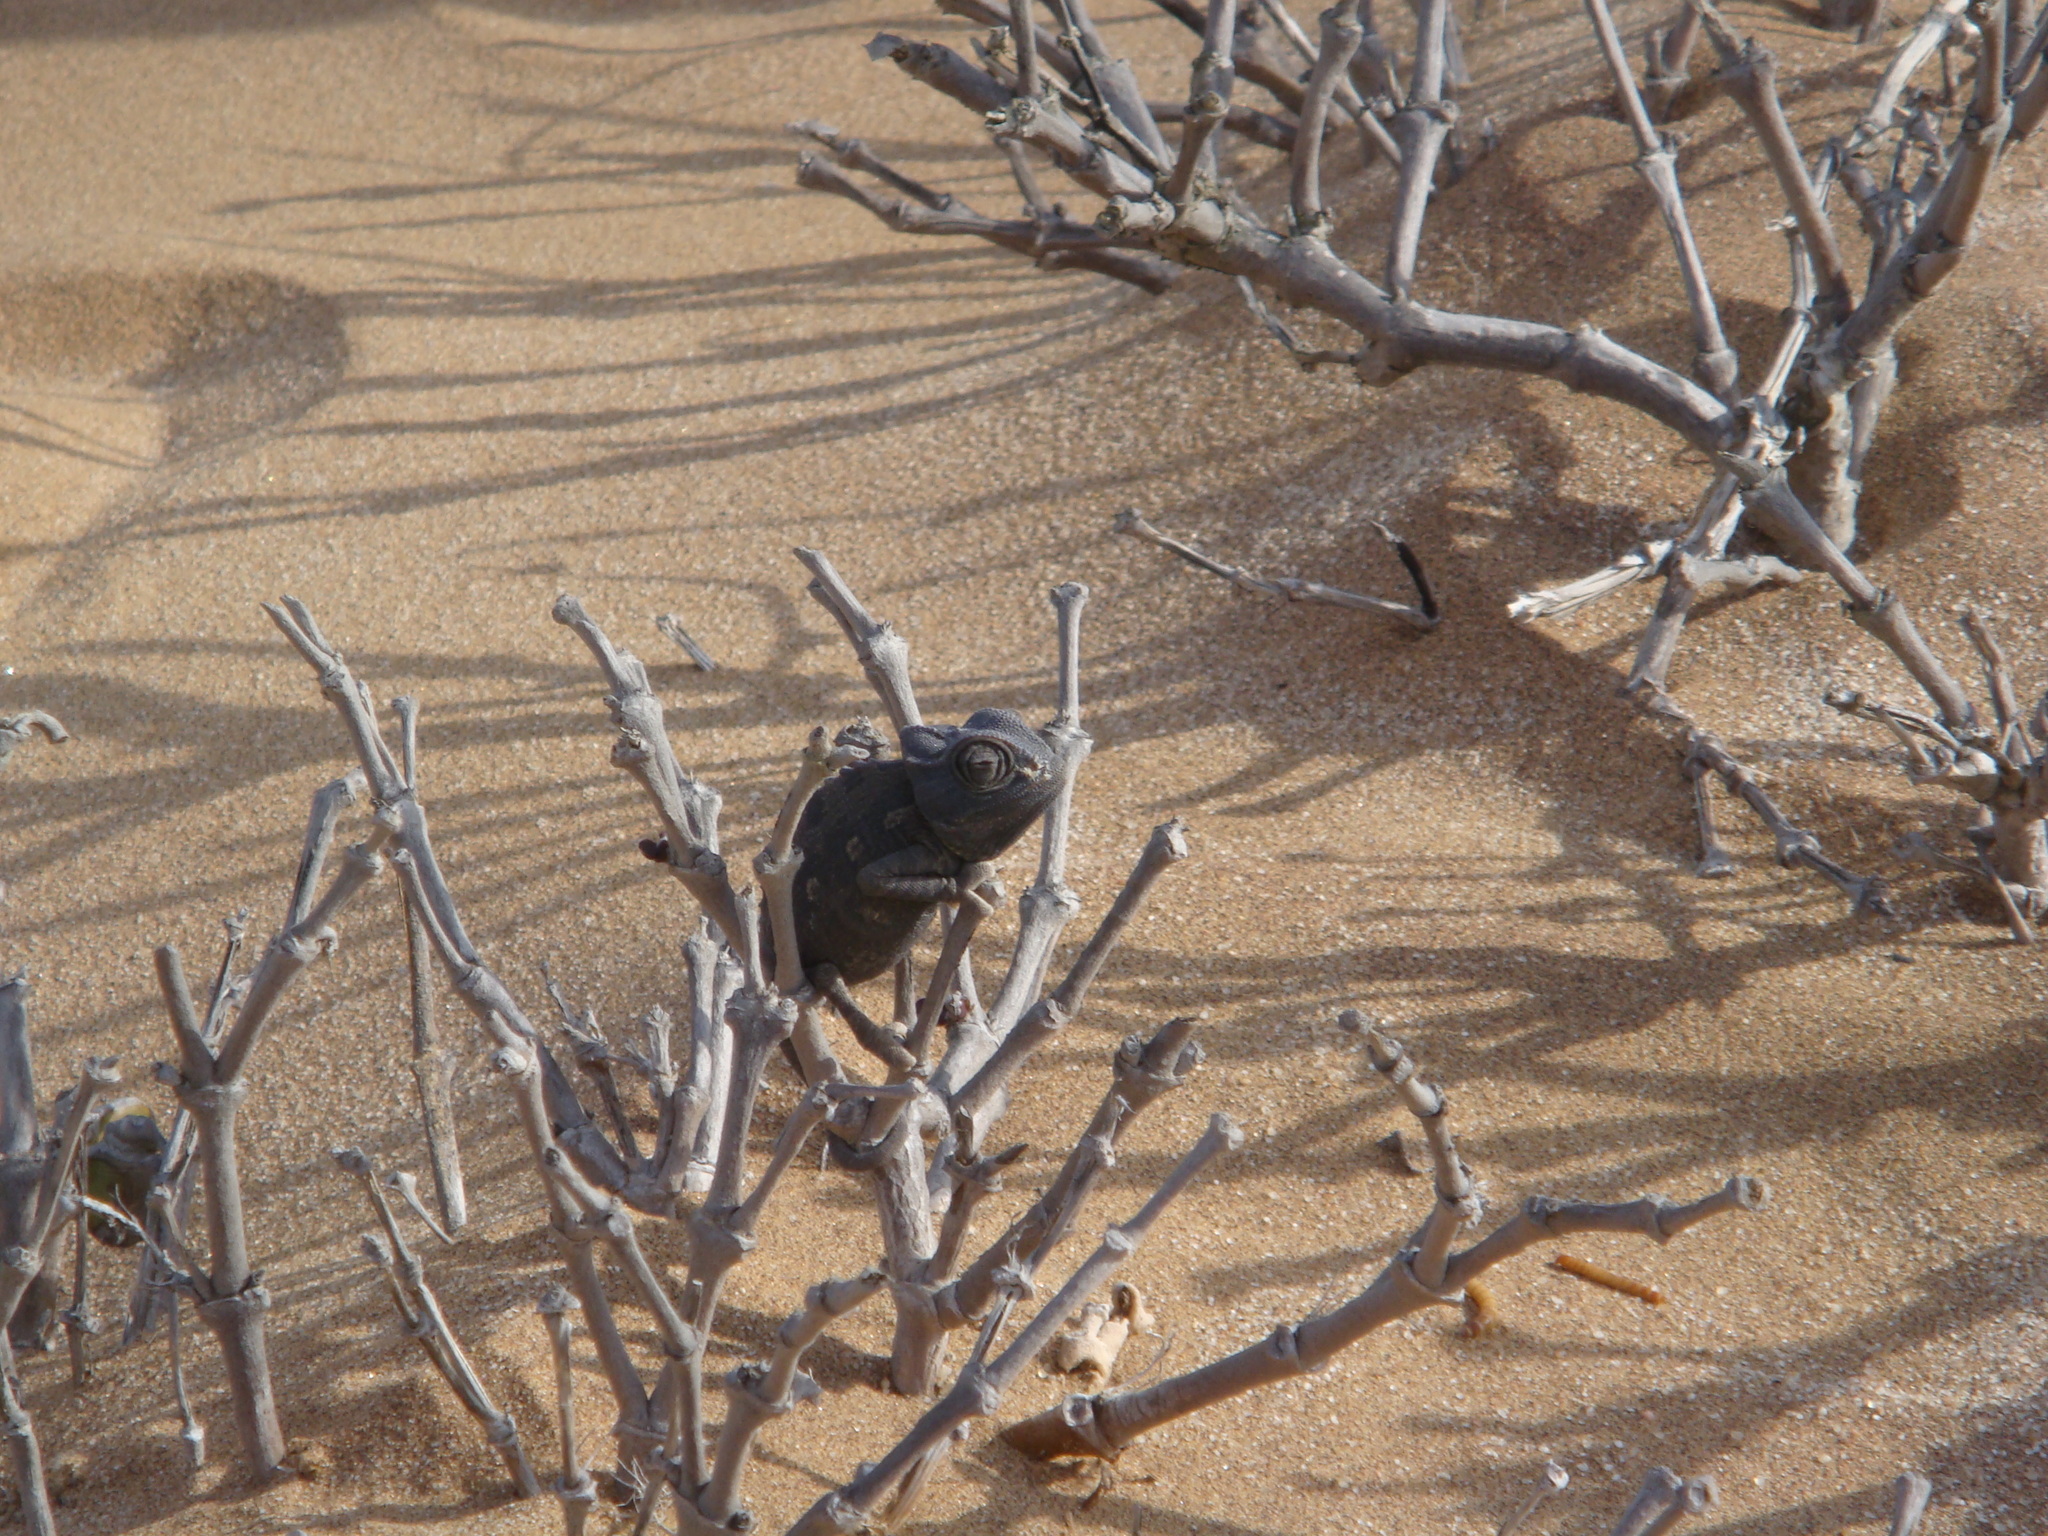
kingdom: Animalia
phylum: Chordata
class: Squamata
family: Chamaeleonidae
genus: Chamaeleo
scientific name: Chamaeleo namaquensis
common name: Namaqua chameleon
